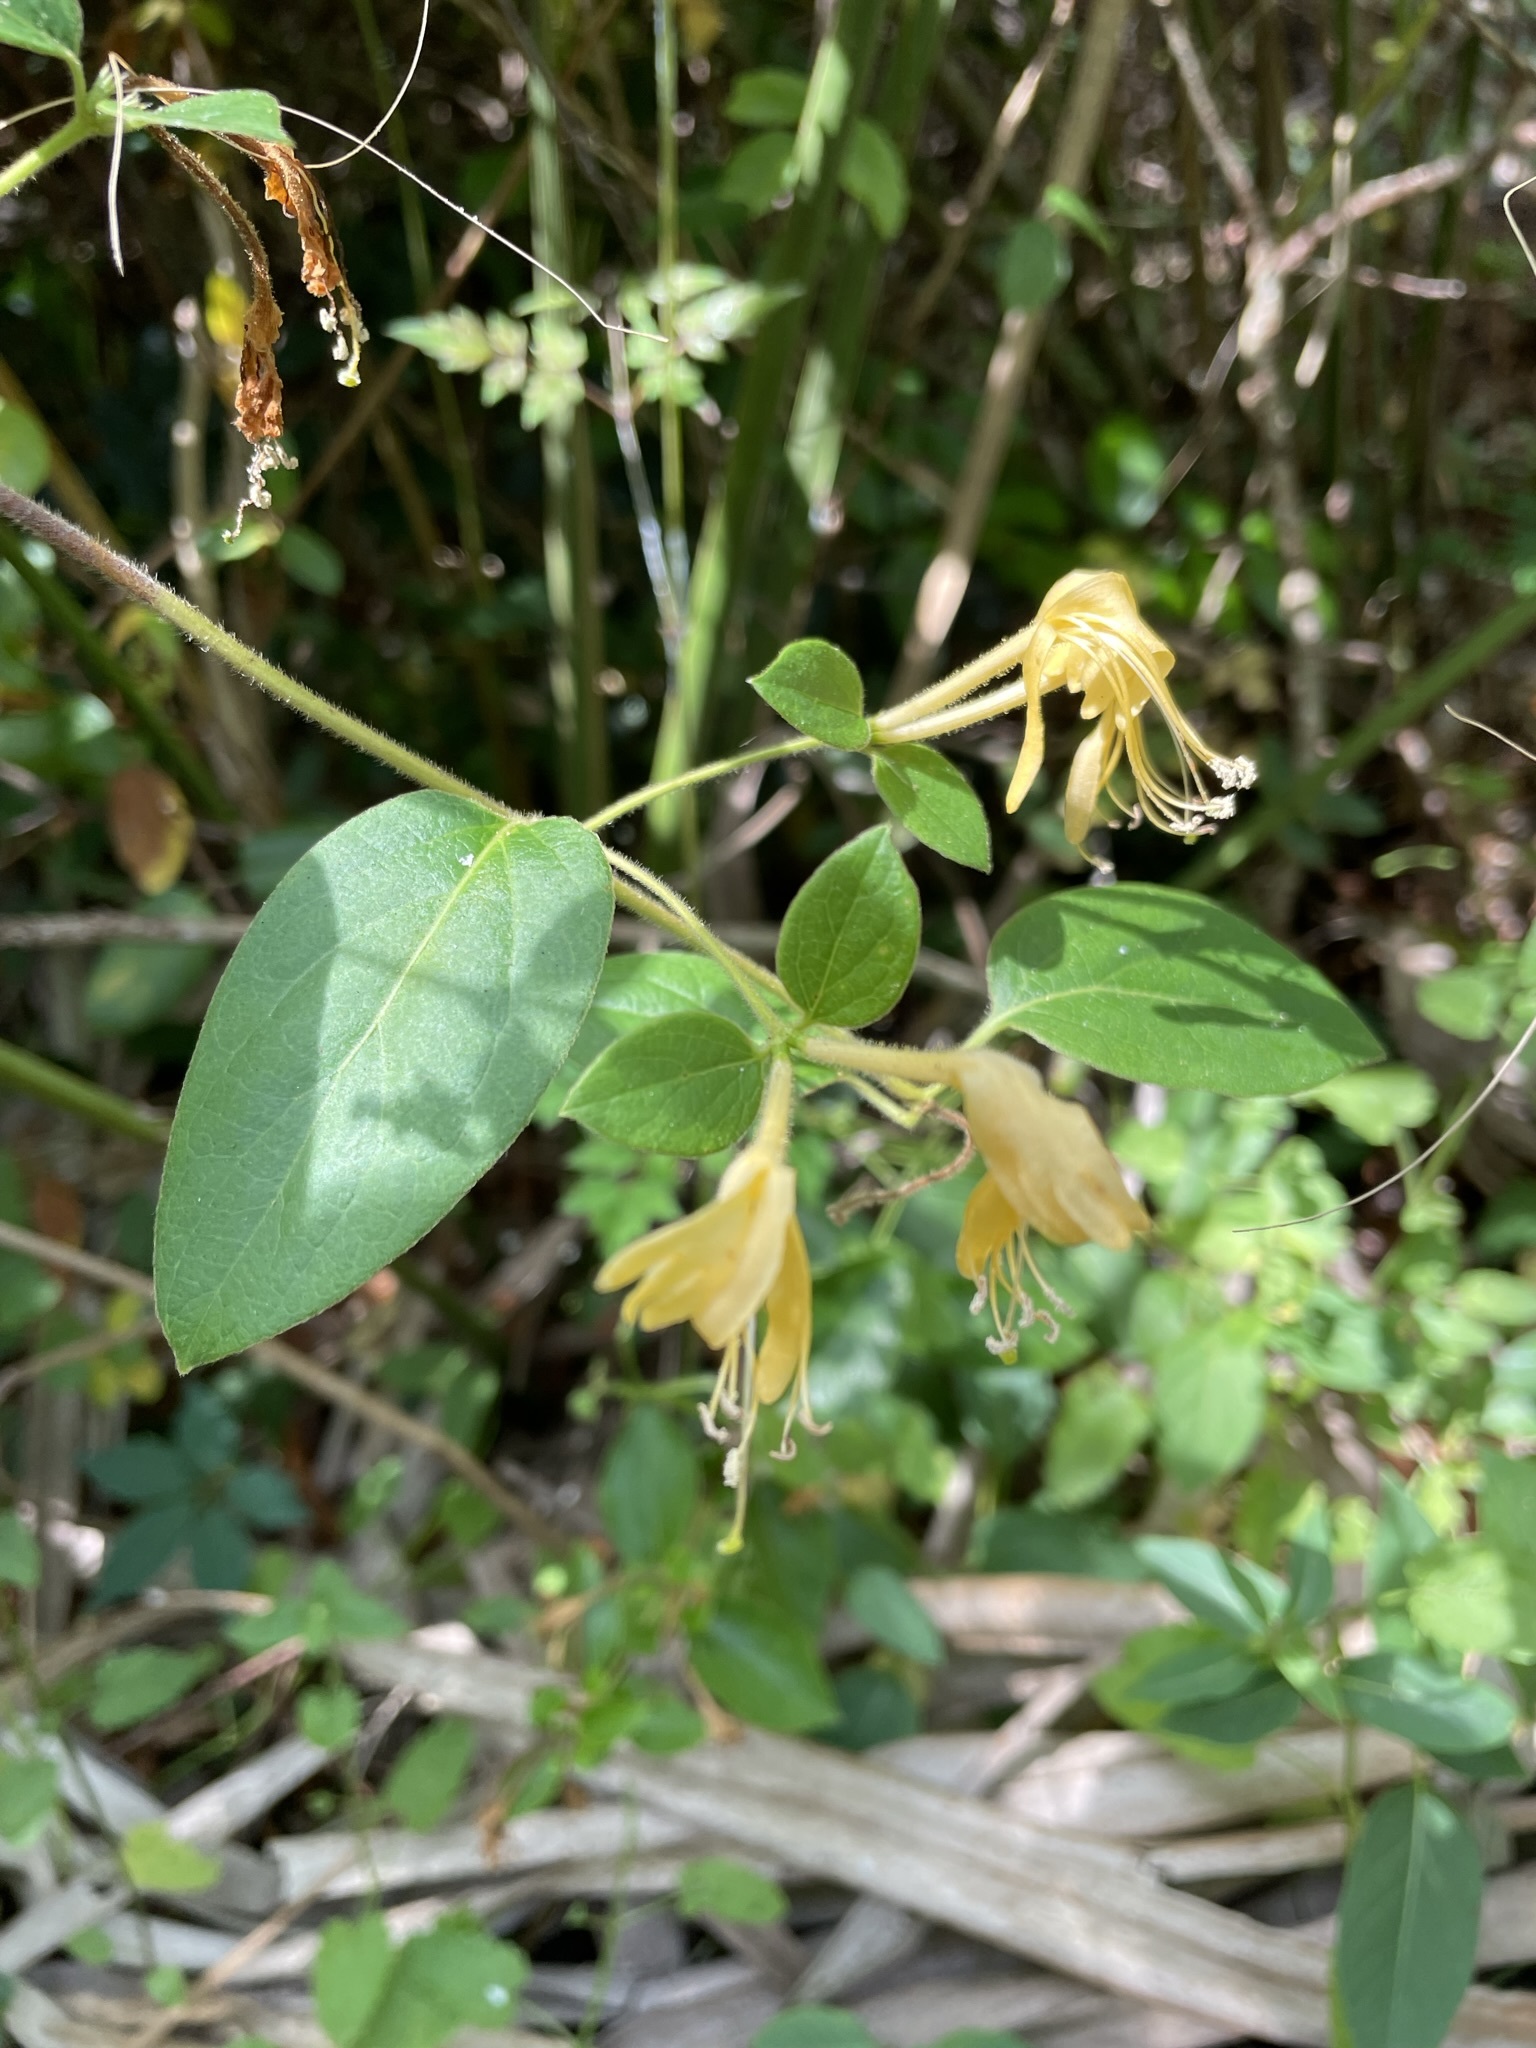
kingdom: Plantae
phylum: Tracheophyta
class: Magnoliopsida
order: Dipsacales
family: Caprifoliaceae
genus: Lonicera
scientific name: Lonicera japonica
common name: Japanese honeysuckle
